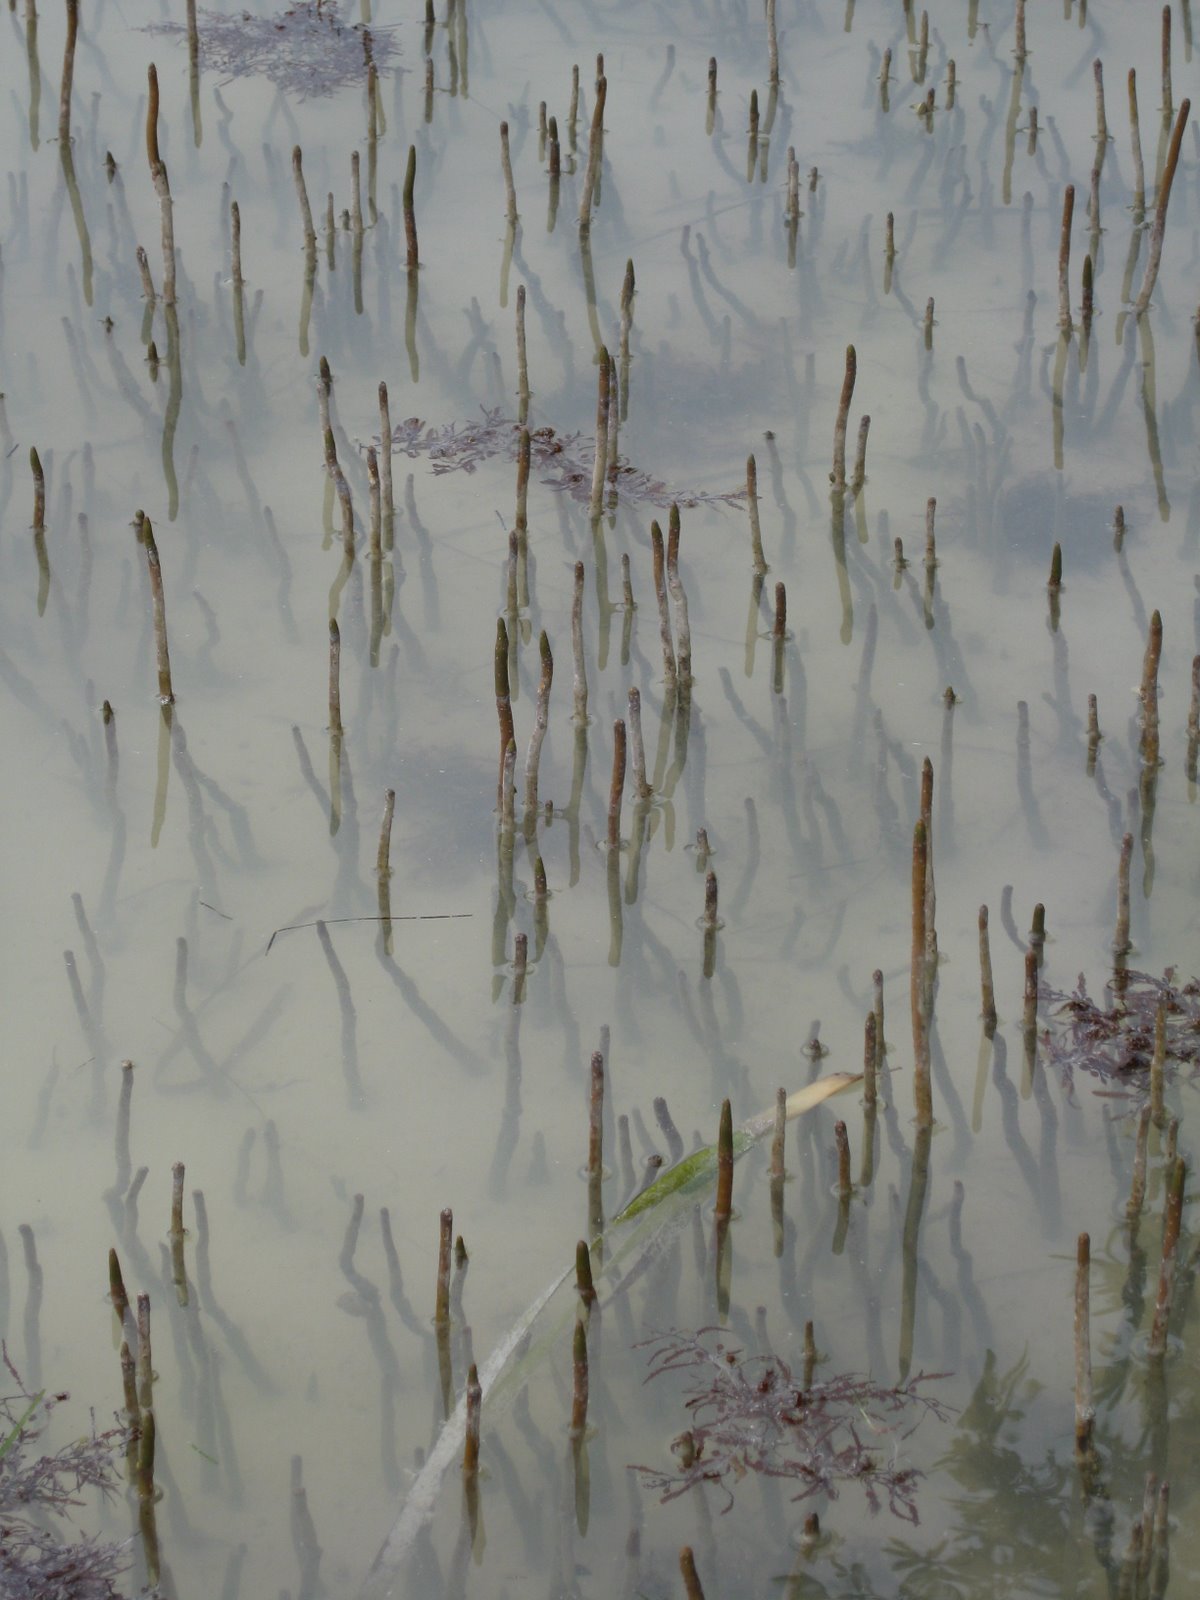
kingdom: Plantae
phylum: Tracheophyta
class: Magnoliopsida
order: Lamiales
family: Acanthaceae
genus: Avicennia
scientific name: Avicennia germinans
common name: Black mangrove
